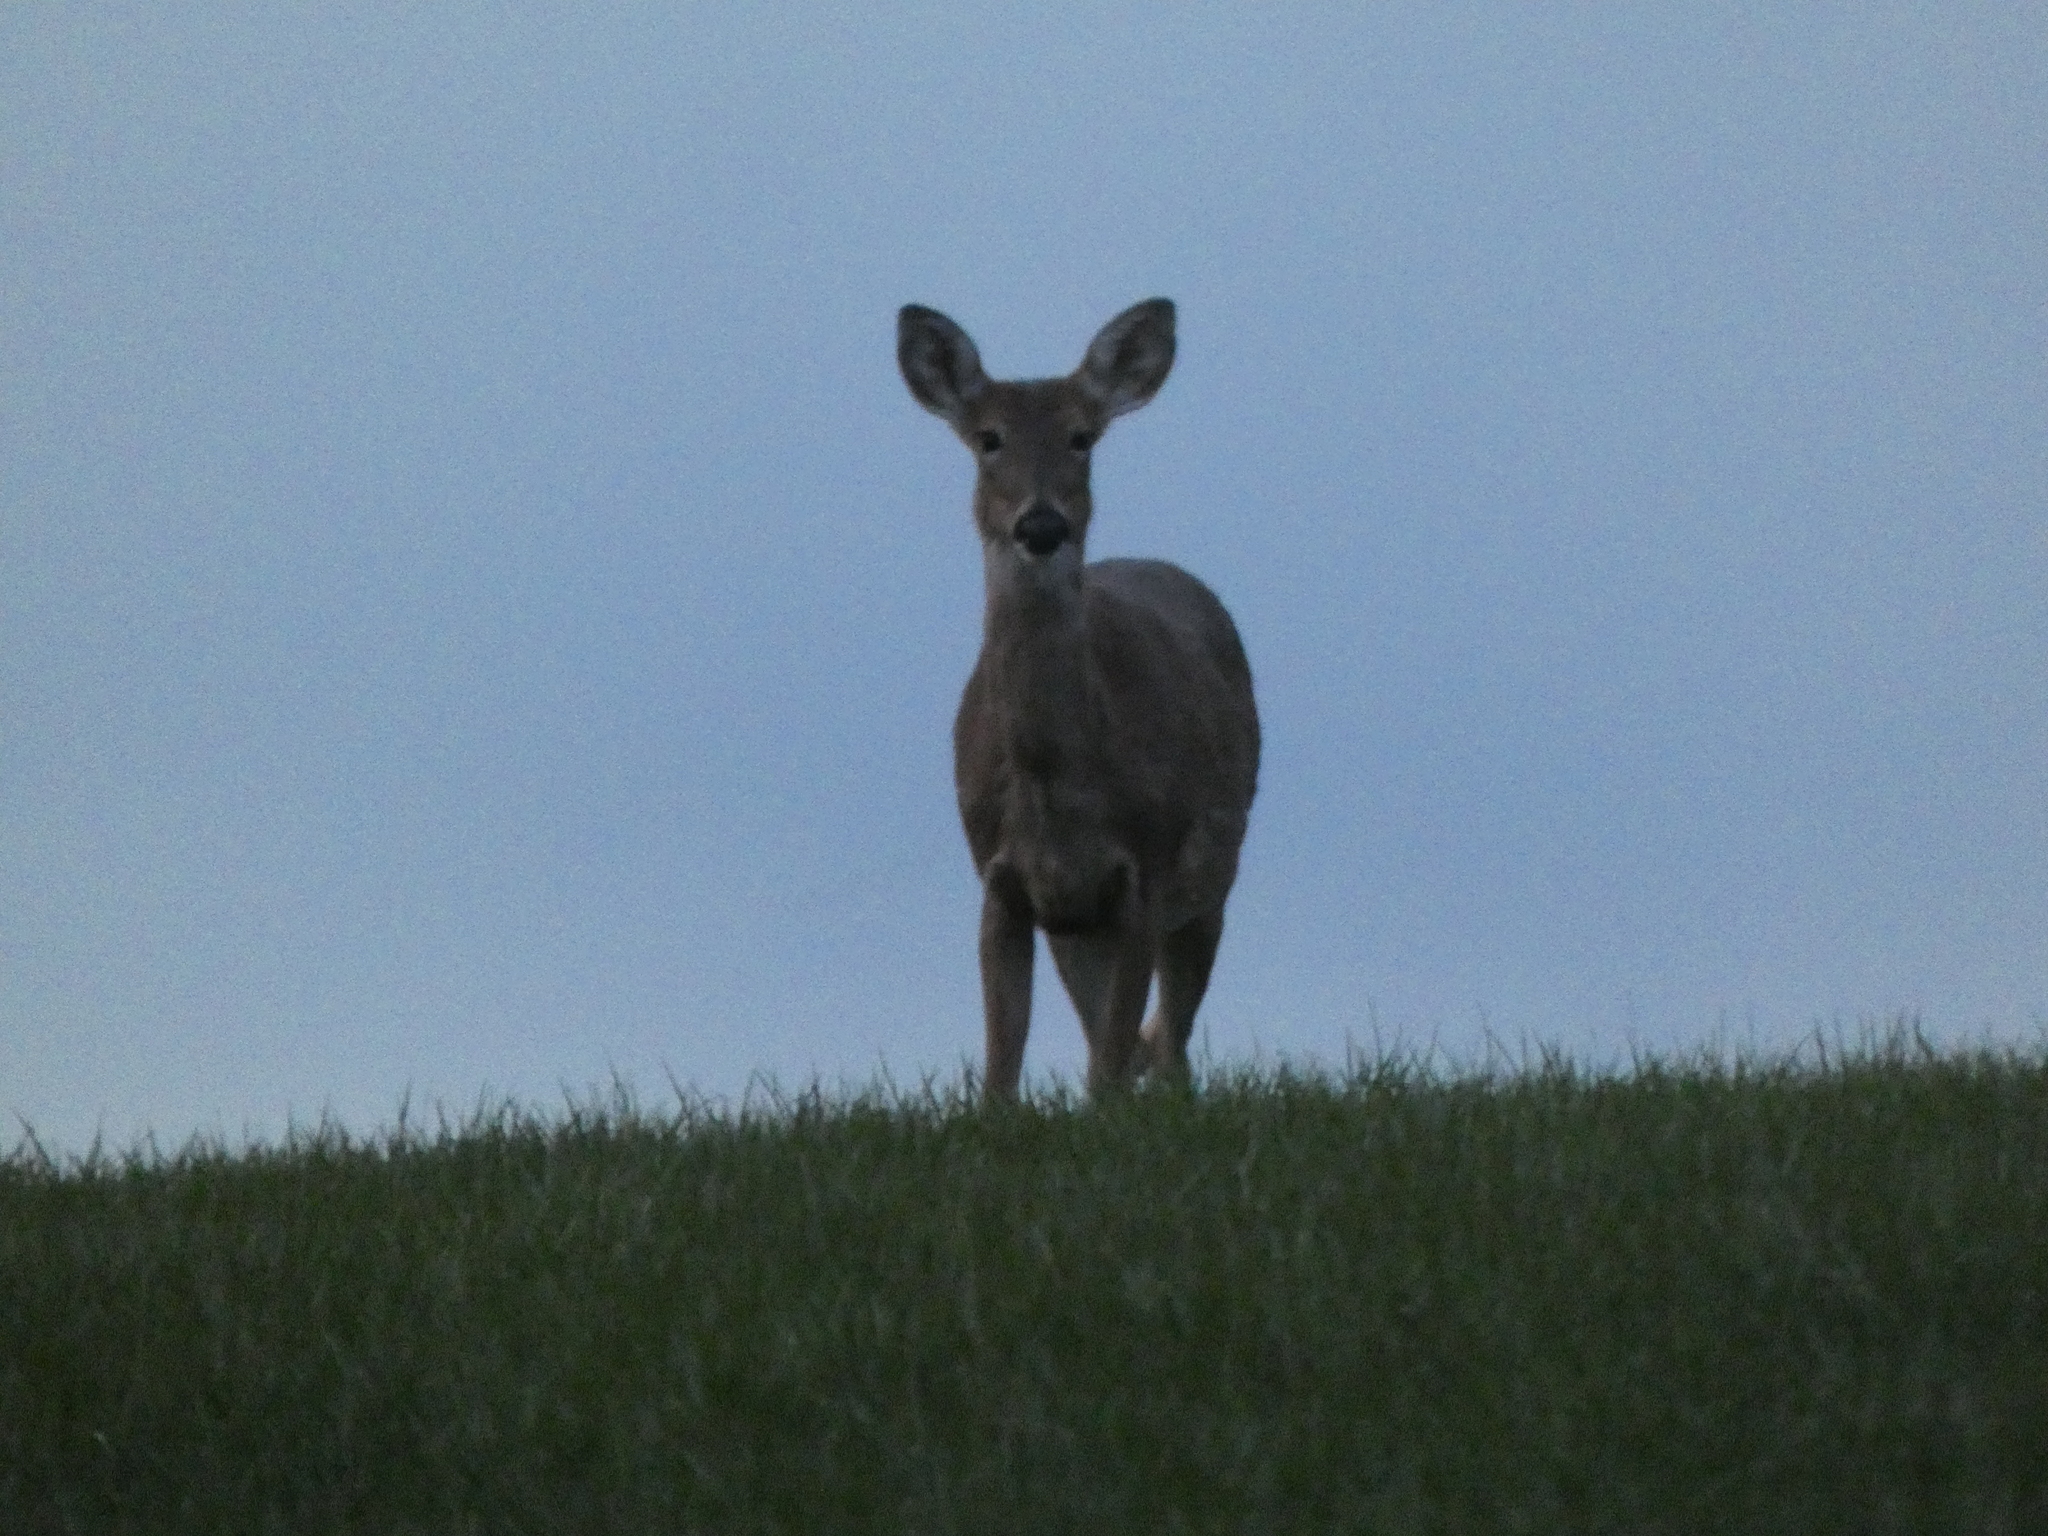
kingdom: Animalia
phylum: Chordata
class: Mammalia
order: Artiodactyla
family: Cervidae
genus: Odocoileus
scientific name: Odocoileus virginianus
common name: White-tailed deer
